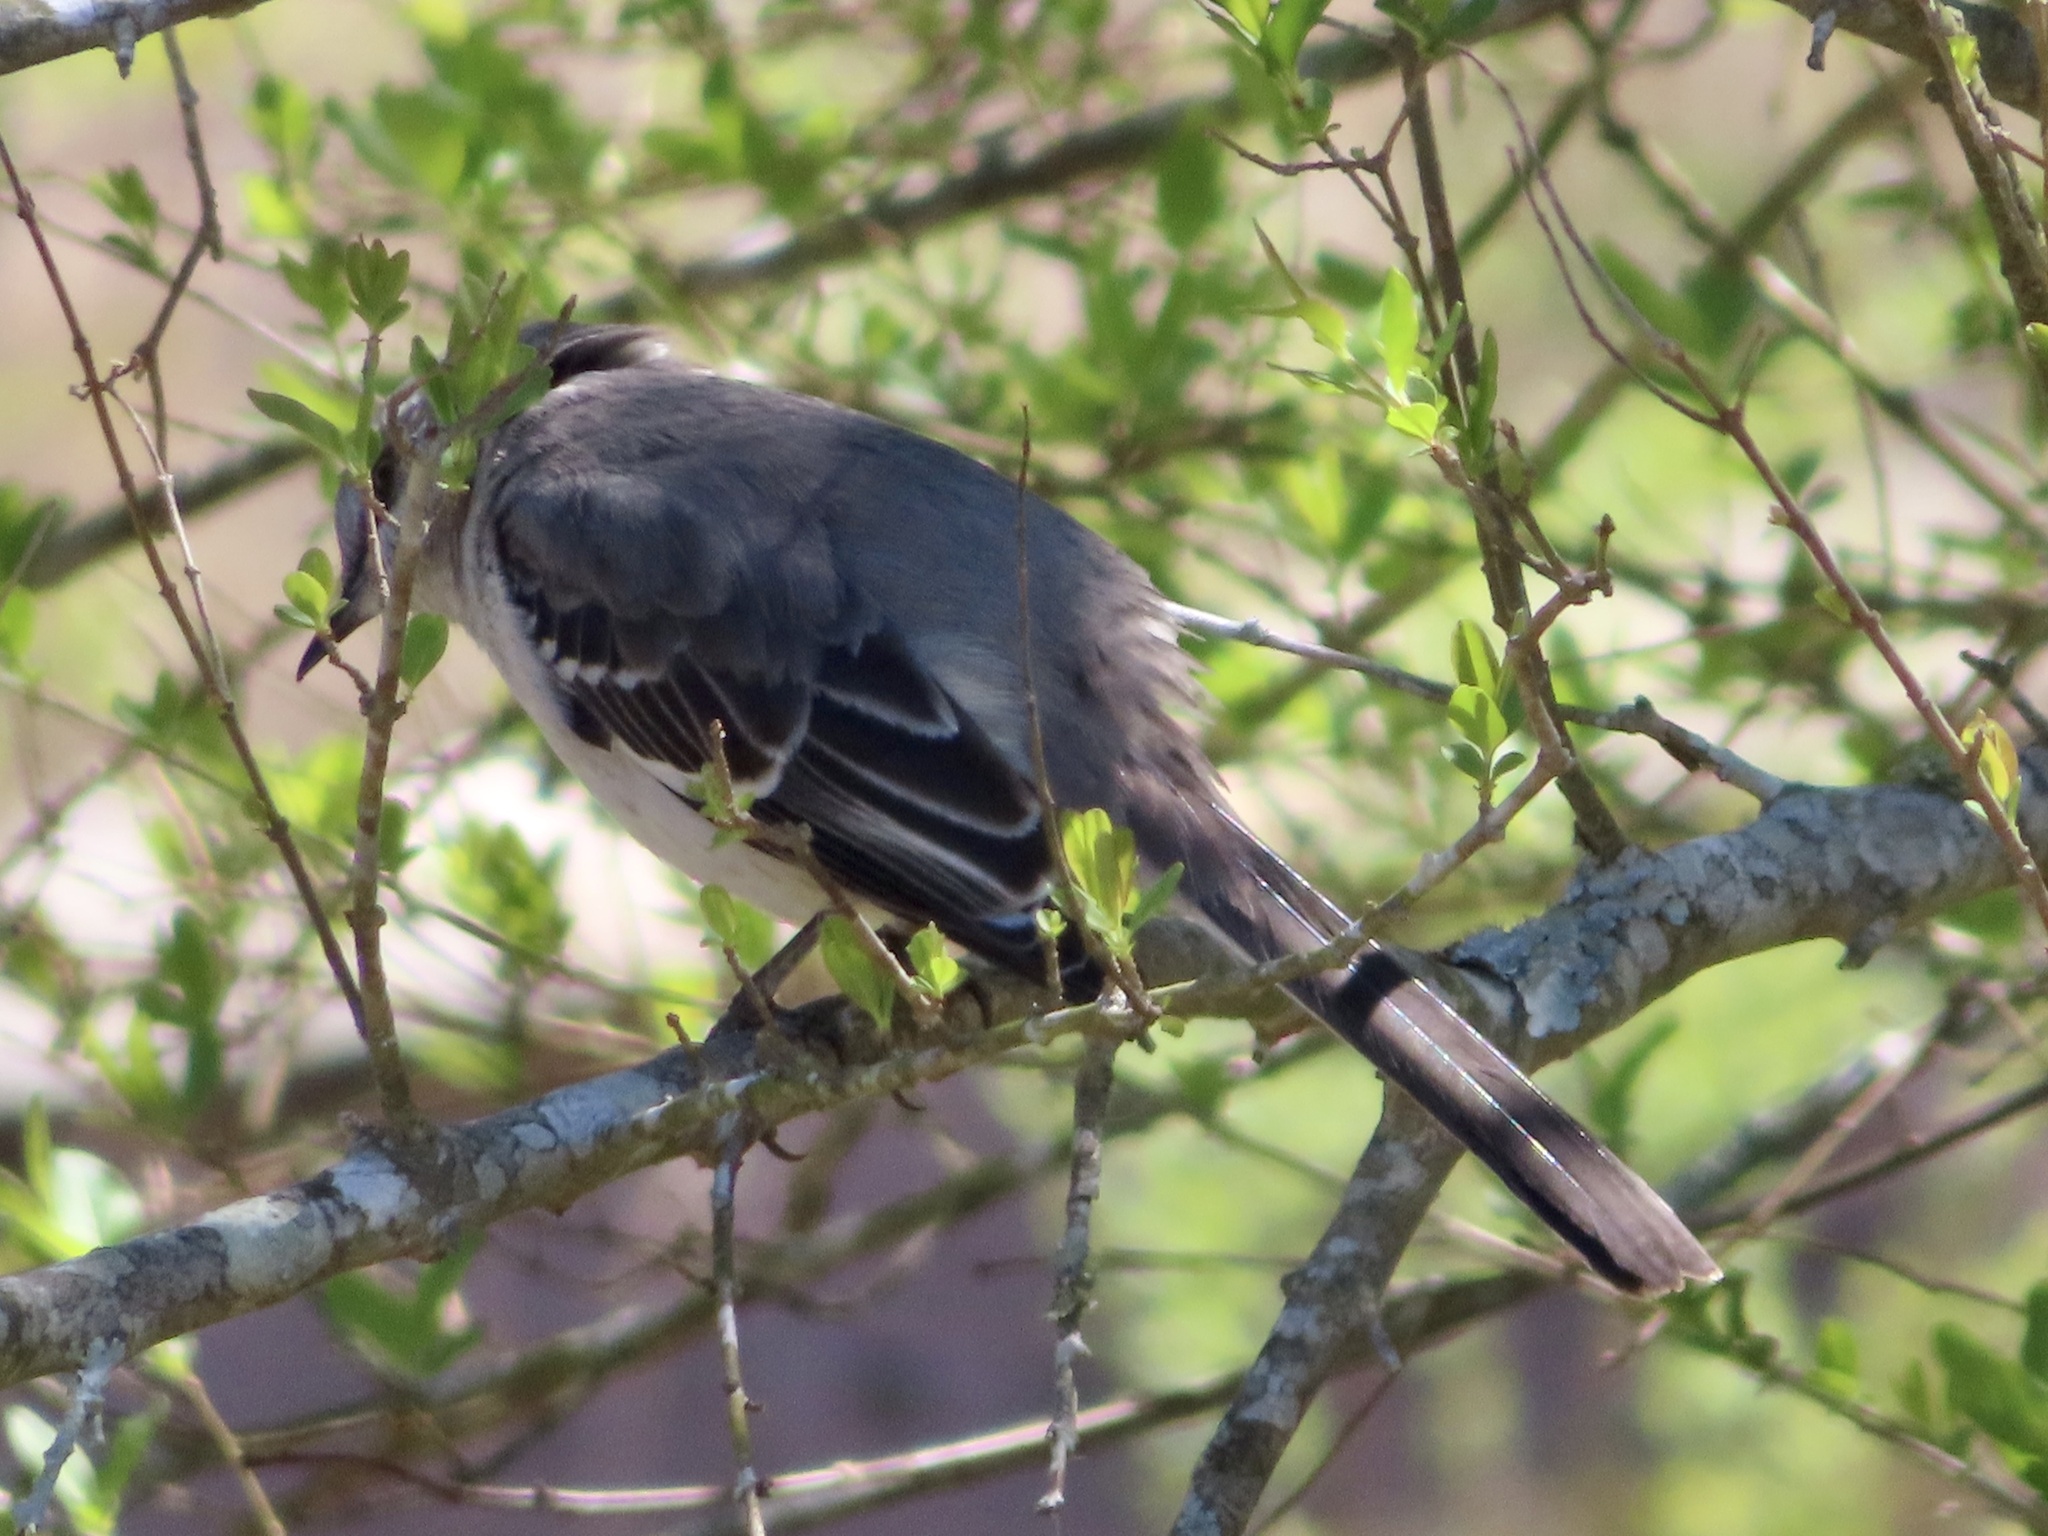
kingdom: Animalia
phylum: Chordata
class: Aves
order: Passeriformes
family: Mimidae
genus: Mimus
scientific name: Mimus polyglottos
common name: Northern mockingbird
